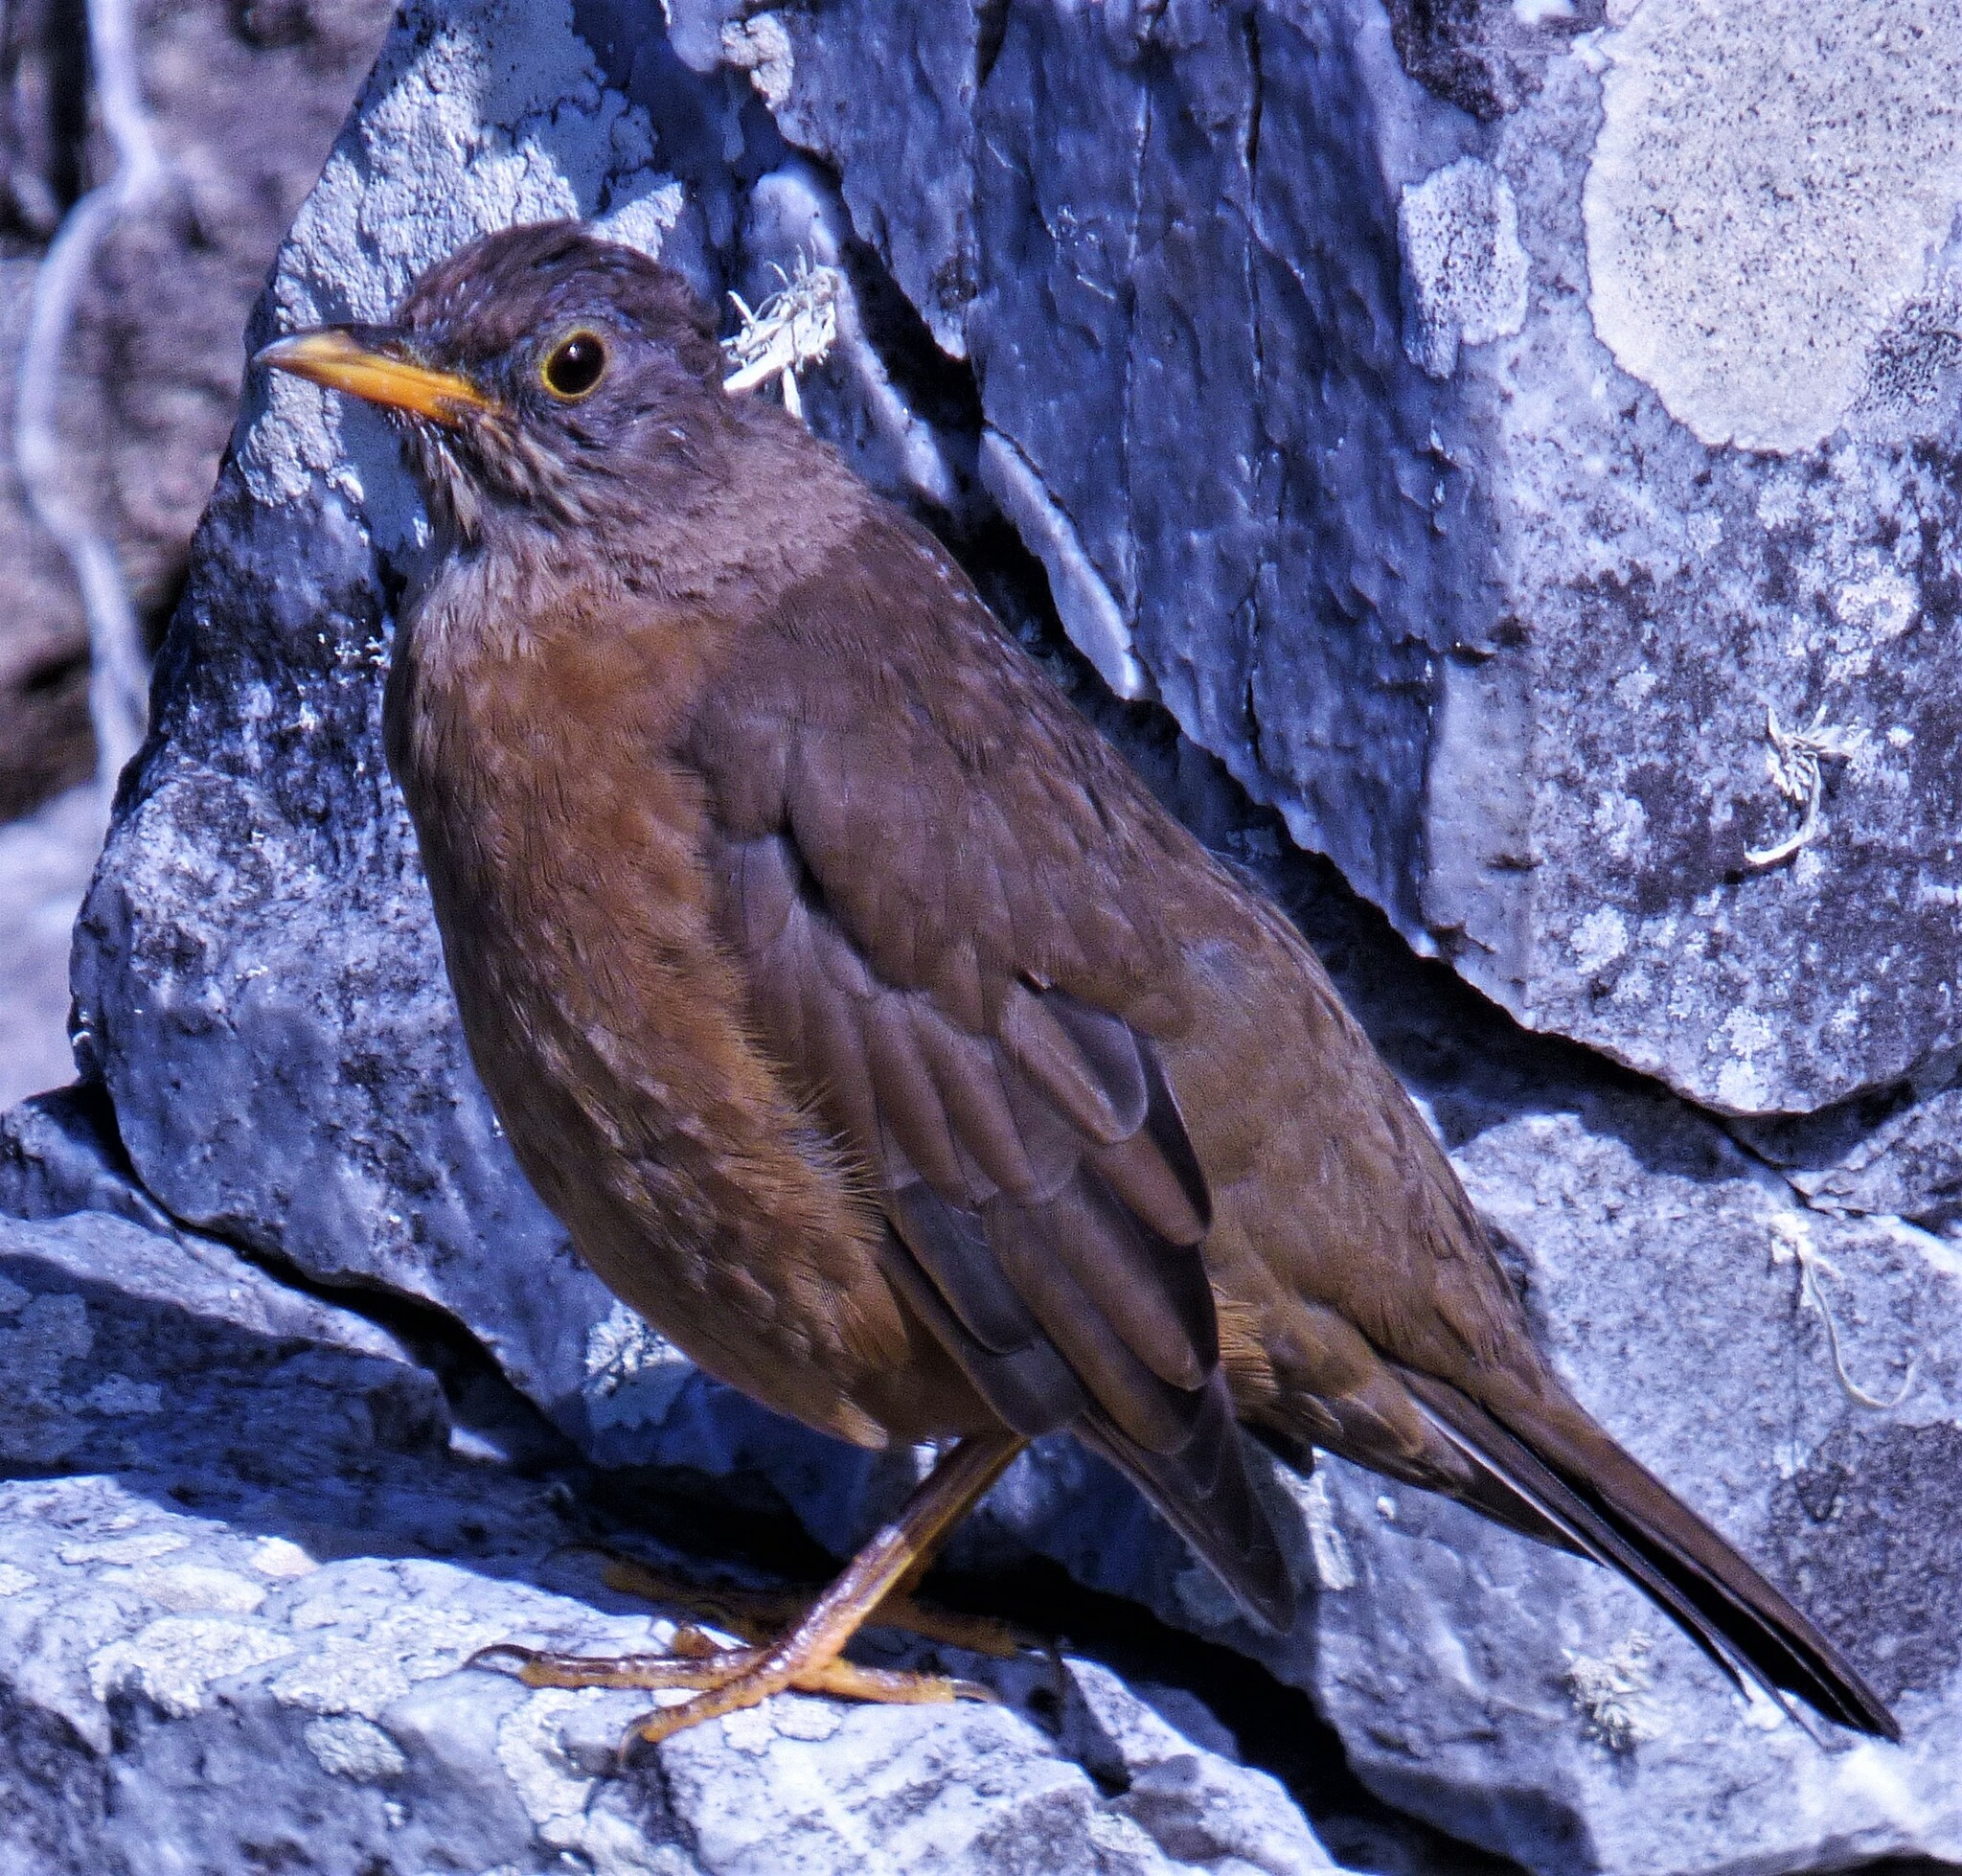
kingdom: Animalia
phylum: Chordata
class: Aves
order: Passeriformes
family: Turdidae
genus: Turdus
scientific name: Turdus falcklandii
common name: Austral thrush
